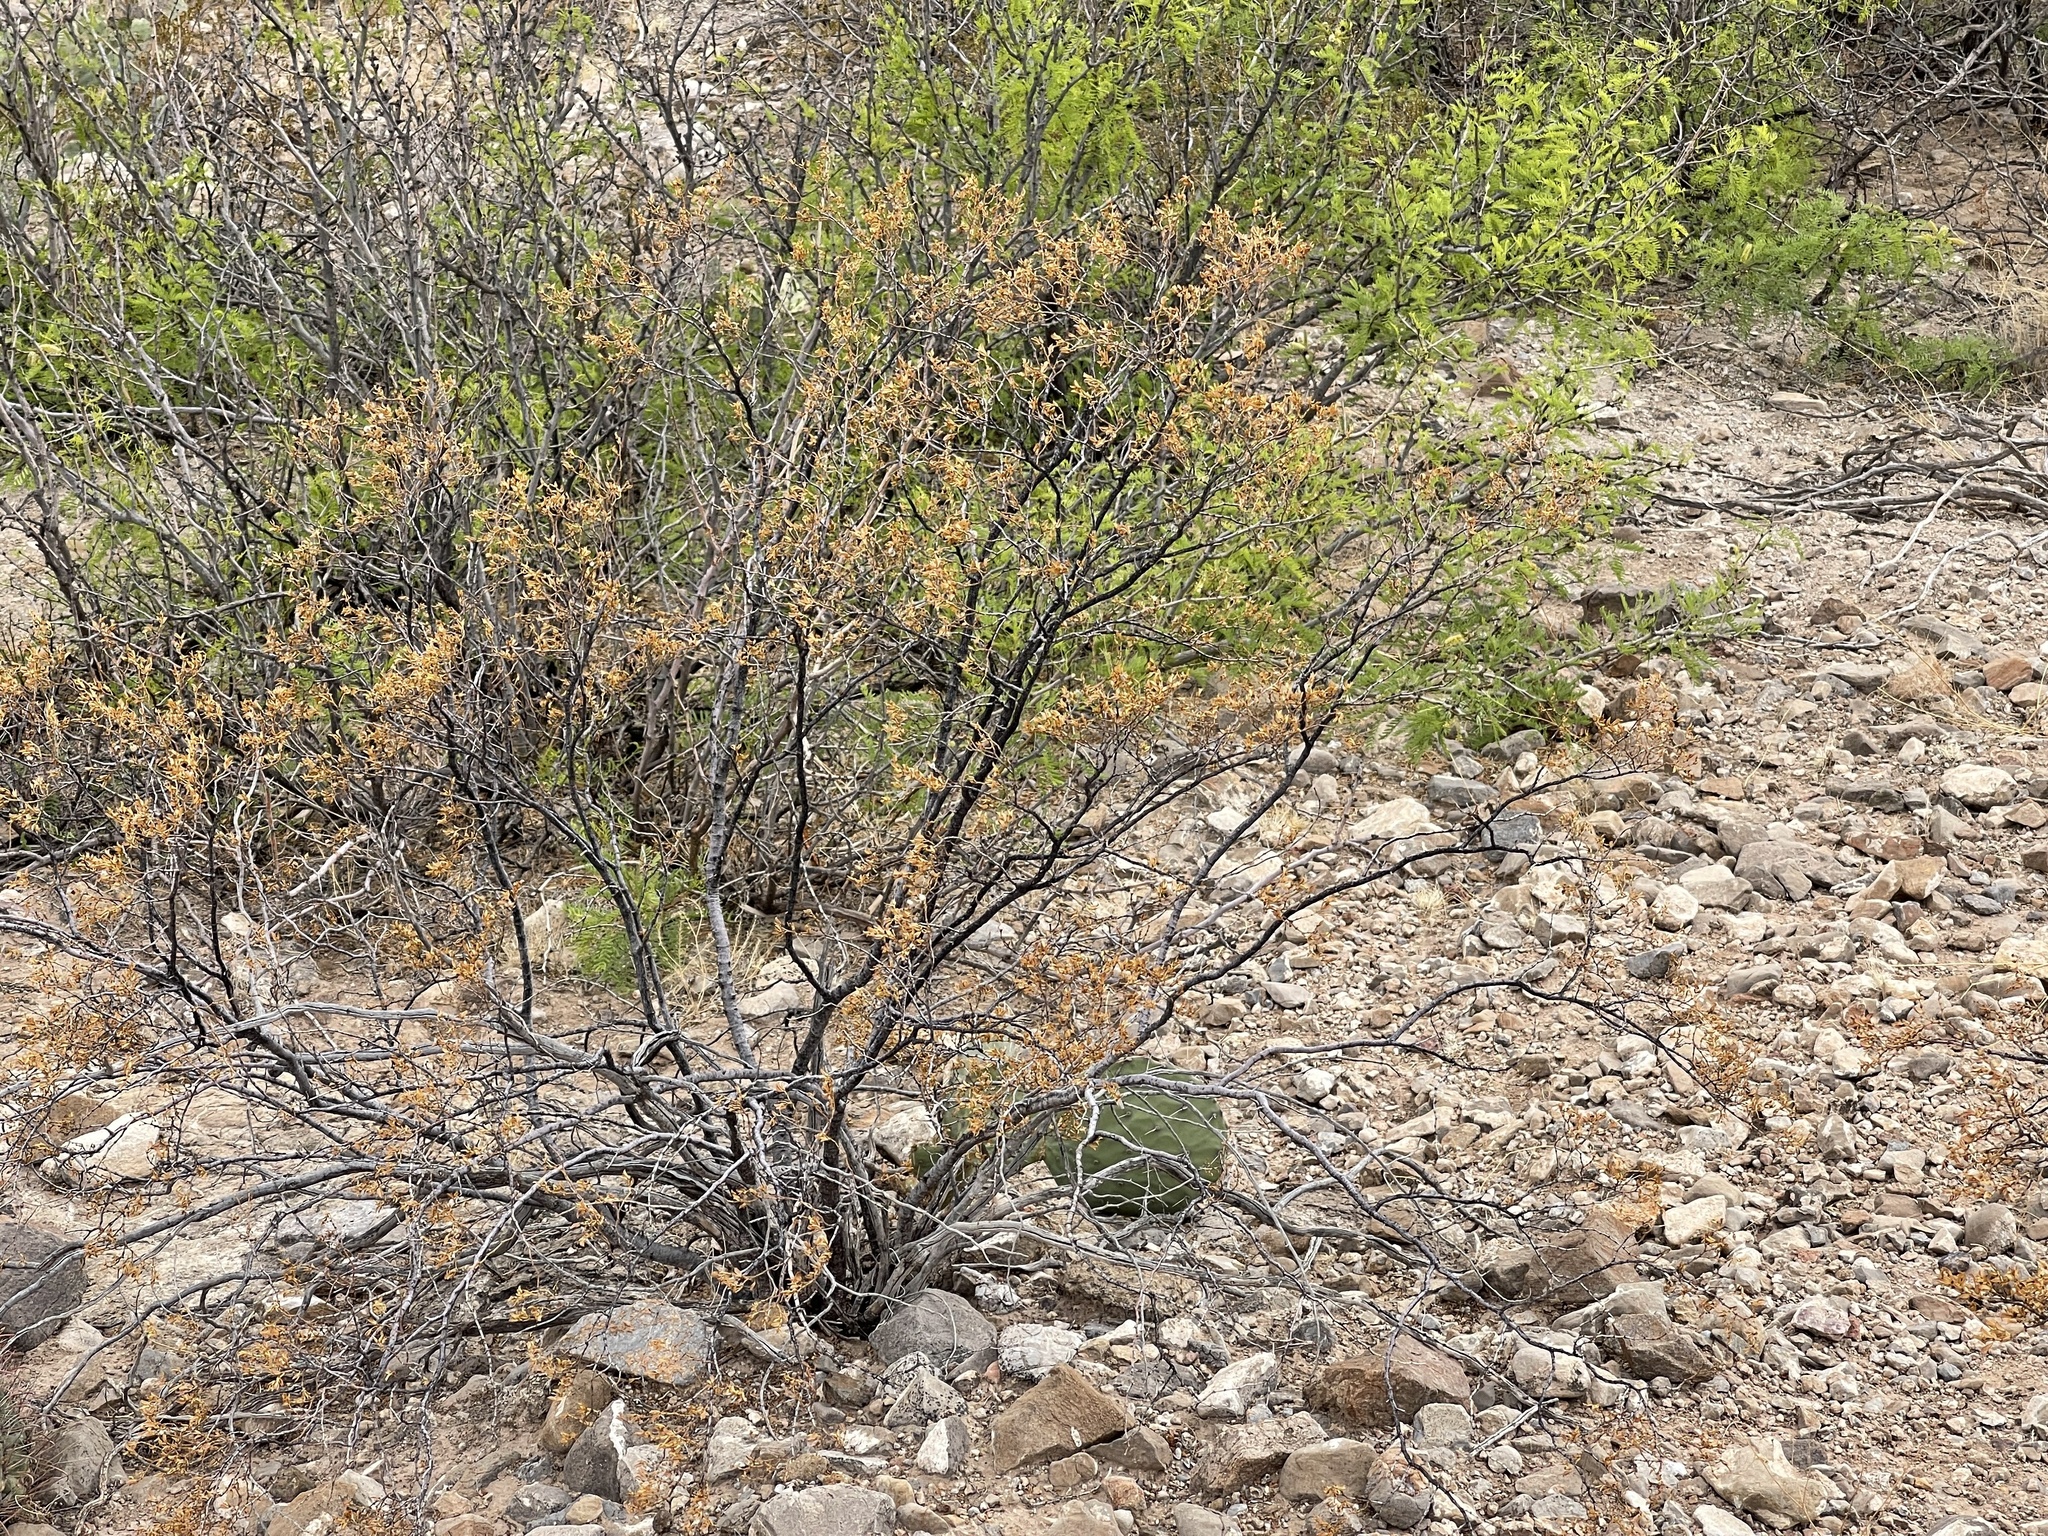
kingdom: Plantae
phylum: Tracheophyta
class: Magnoliopsida
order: Zygophyllales
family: Zygophyllaceae
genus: Larrea
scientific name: Larrea tridentata
